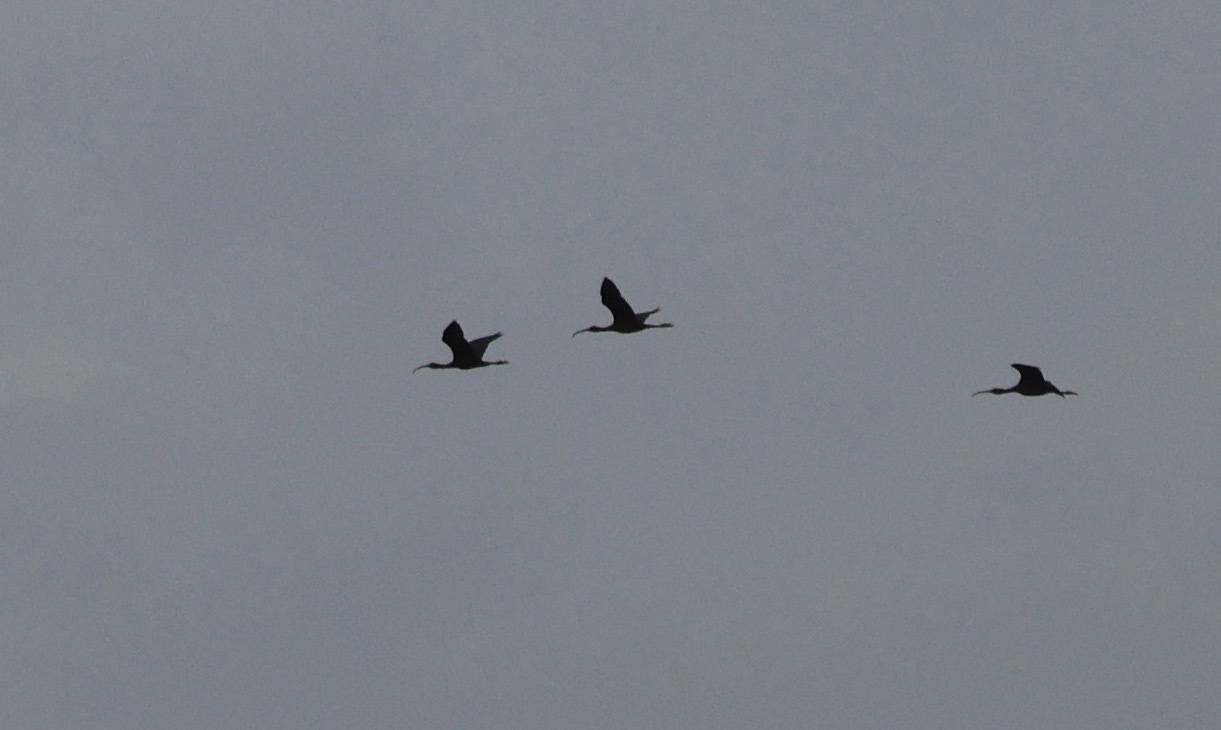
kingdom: Animalia
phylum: Chordata
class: Aves
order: Pelecaniformes
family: Threskiornithidae
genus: Plegadis
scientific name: Plegadis falcinellus
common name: Glossy ibis
